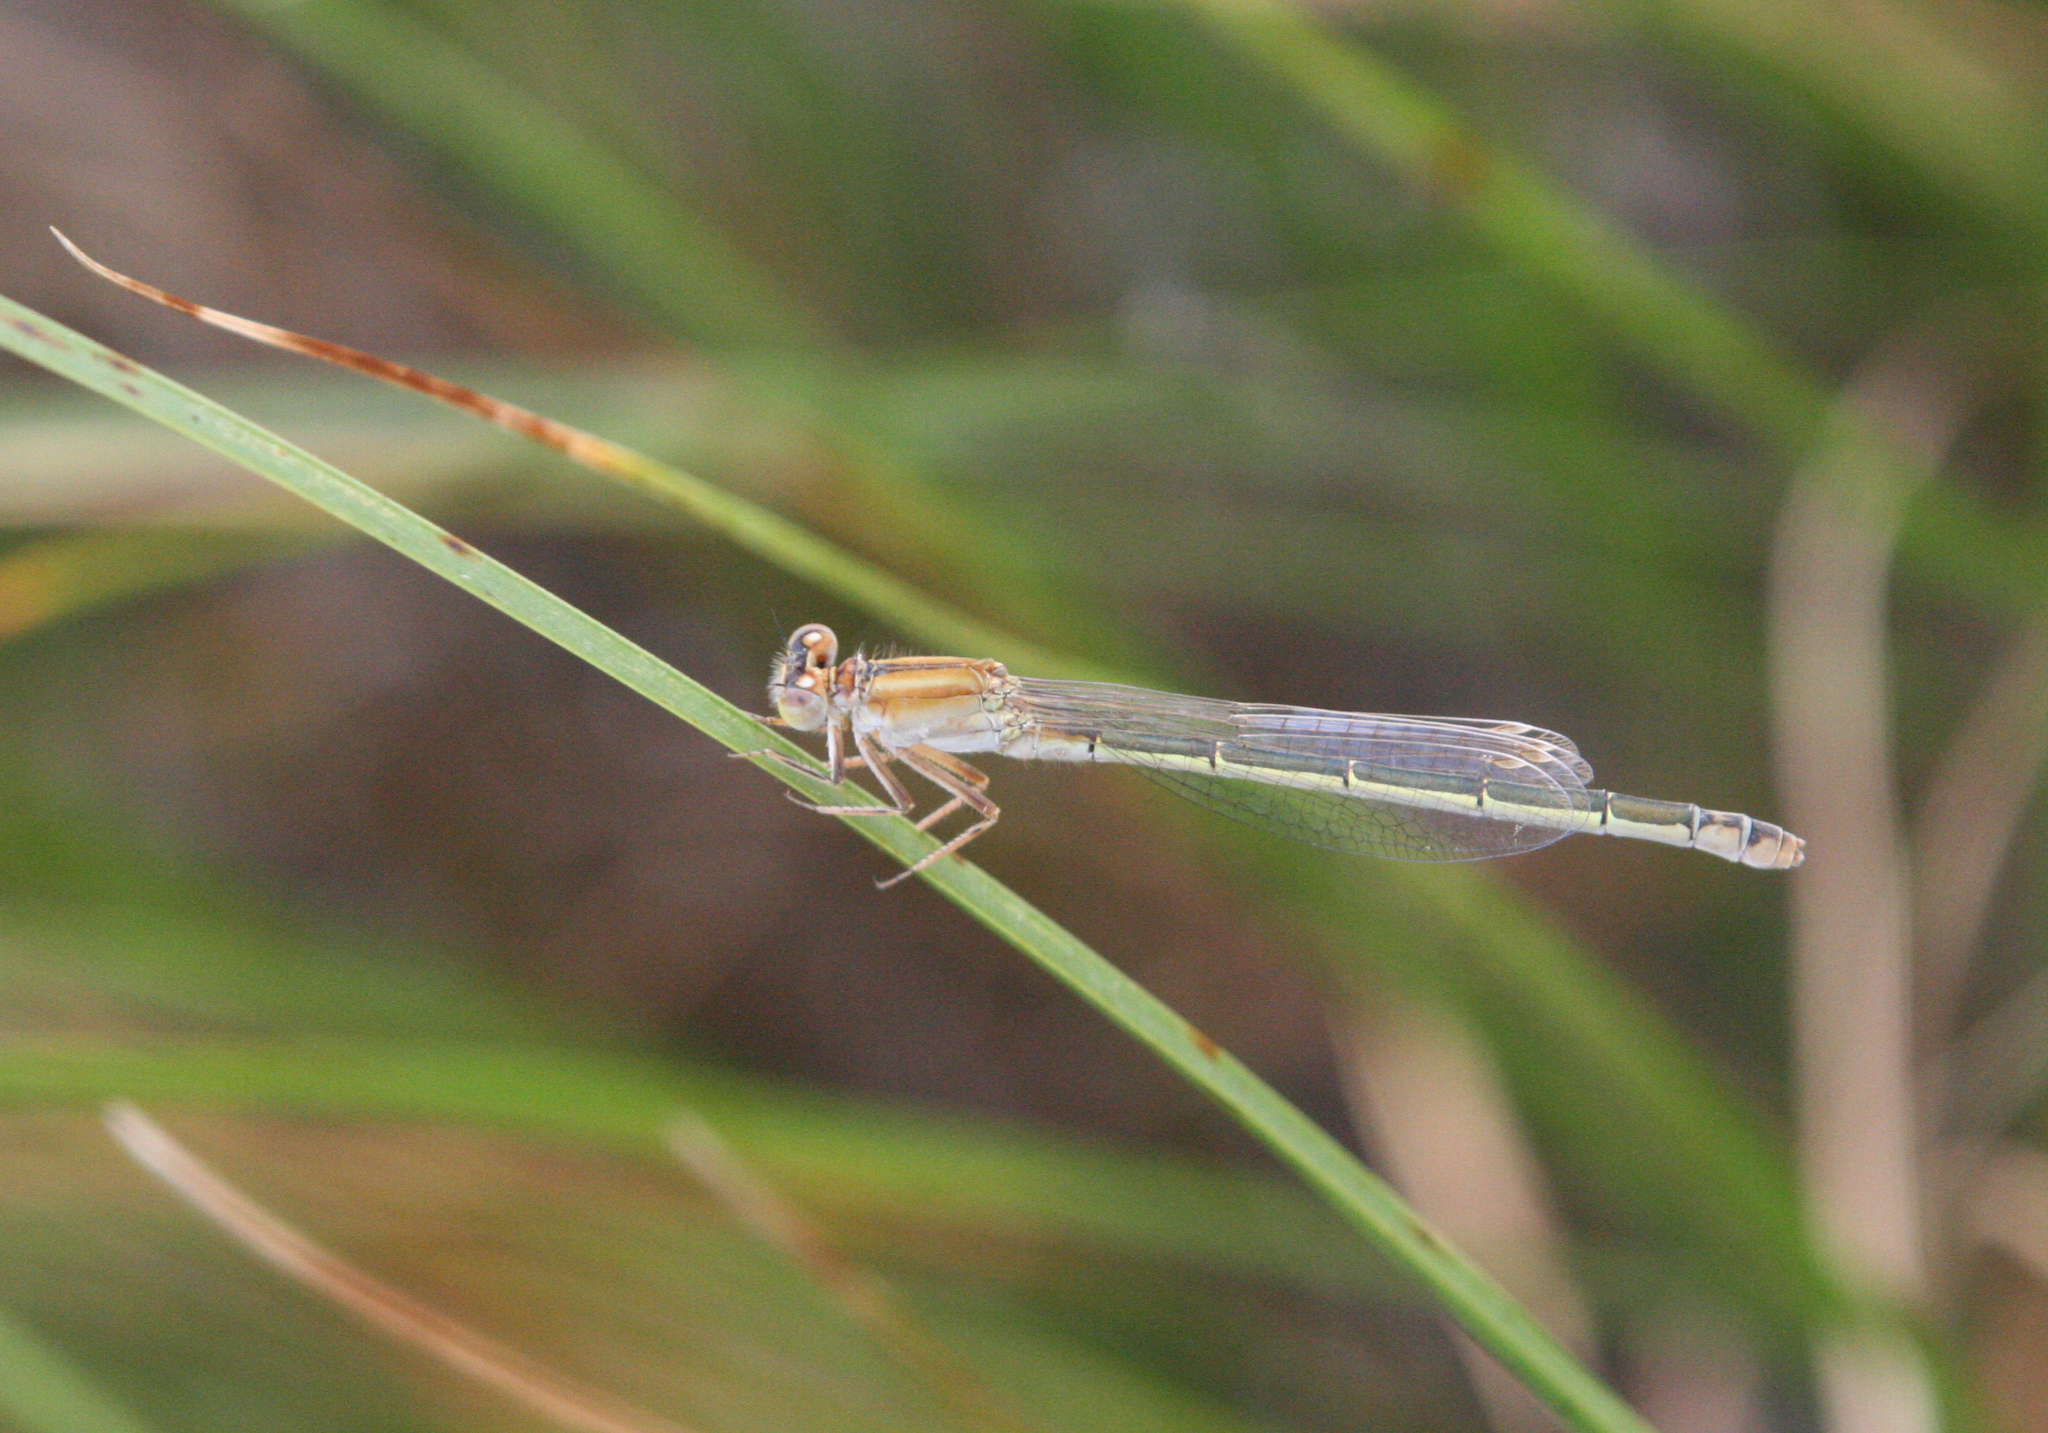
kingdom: Animalia
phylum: Arthropoda
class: Insecta
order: Odonata
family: Coenagrionidae
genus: Ischnura
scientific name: Ischnura fountaineae
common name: Oasis bluetail
